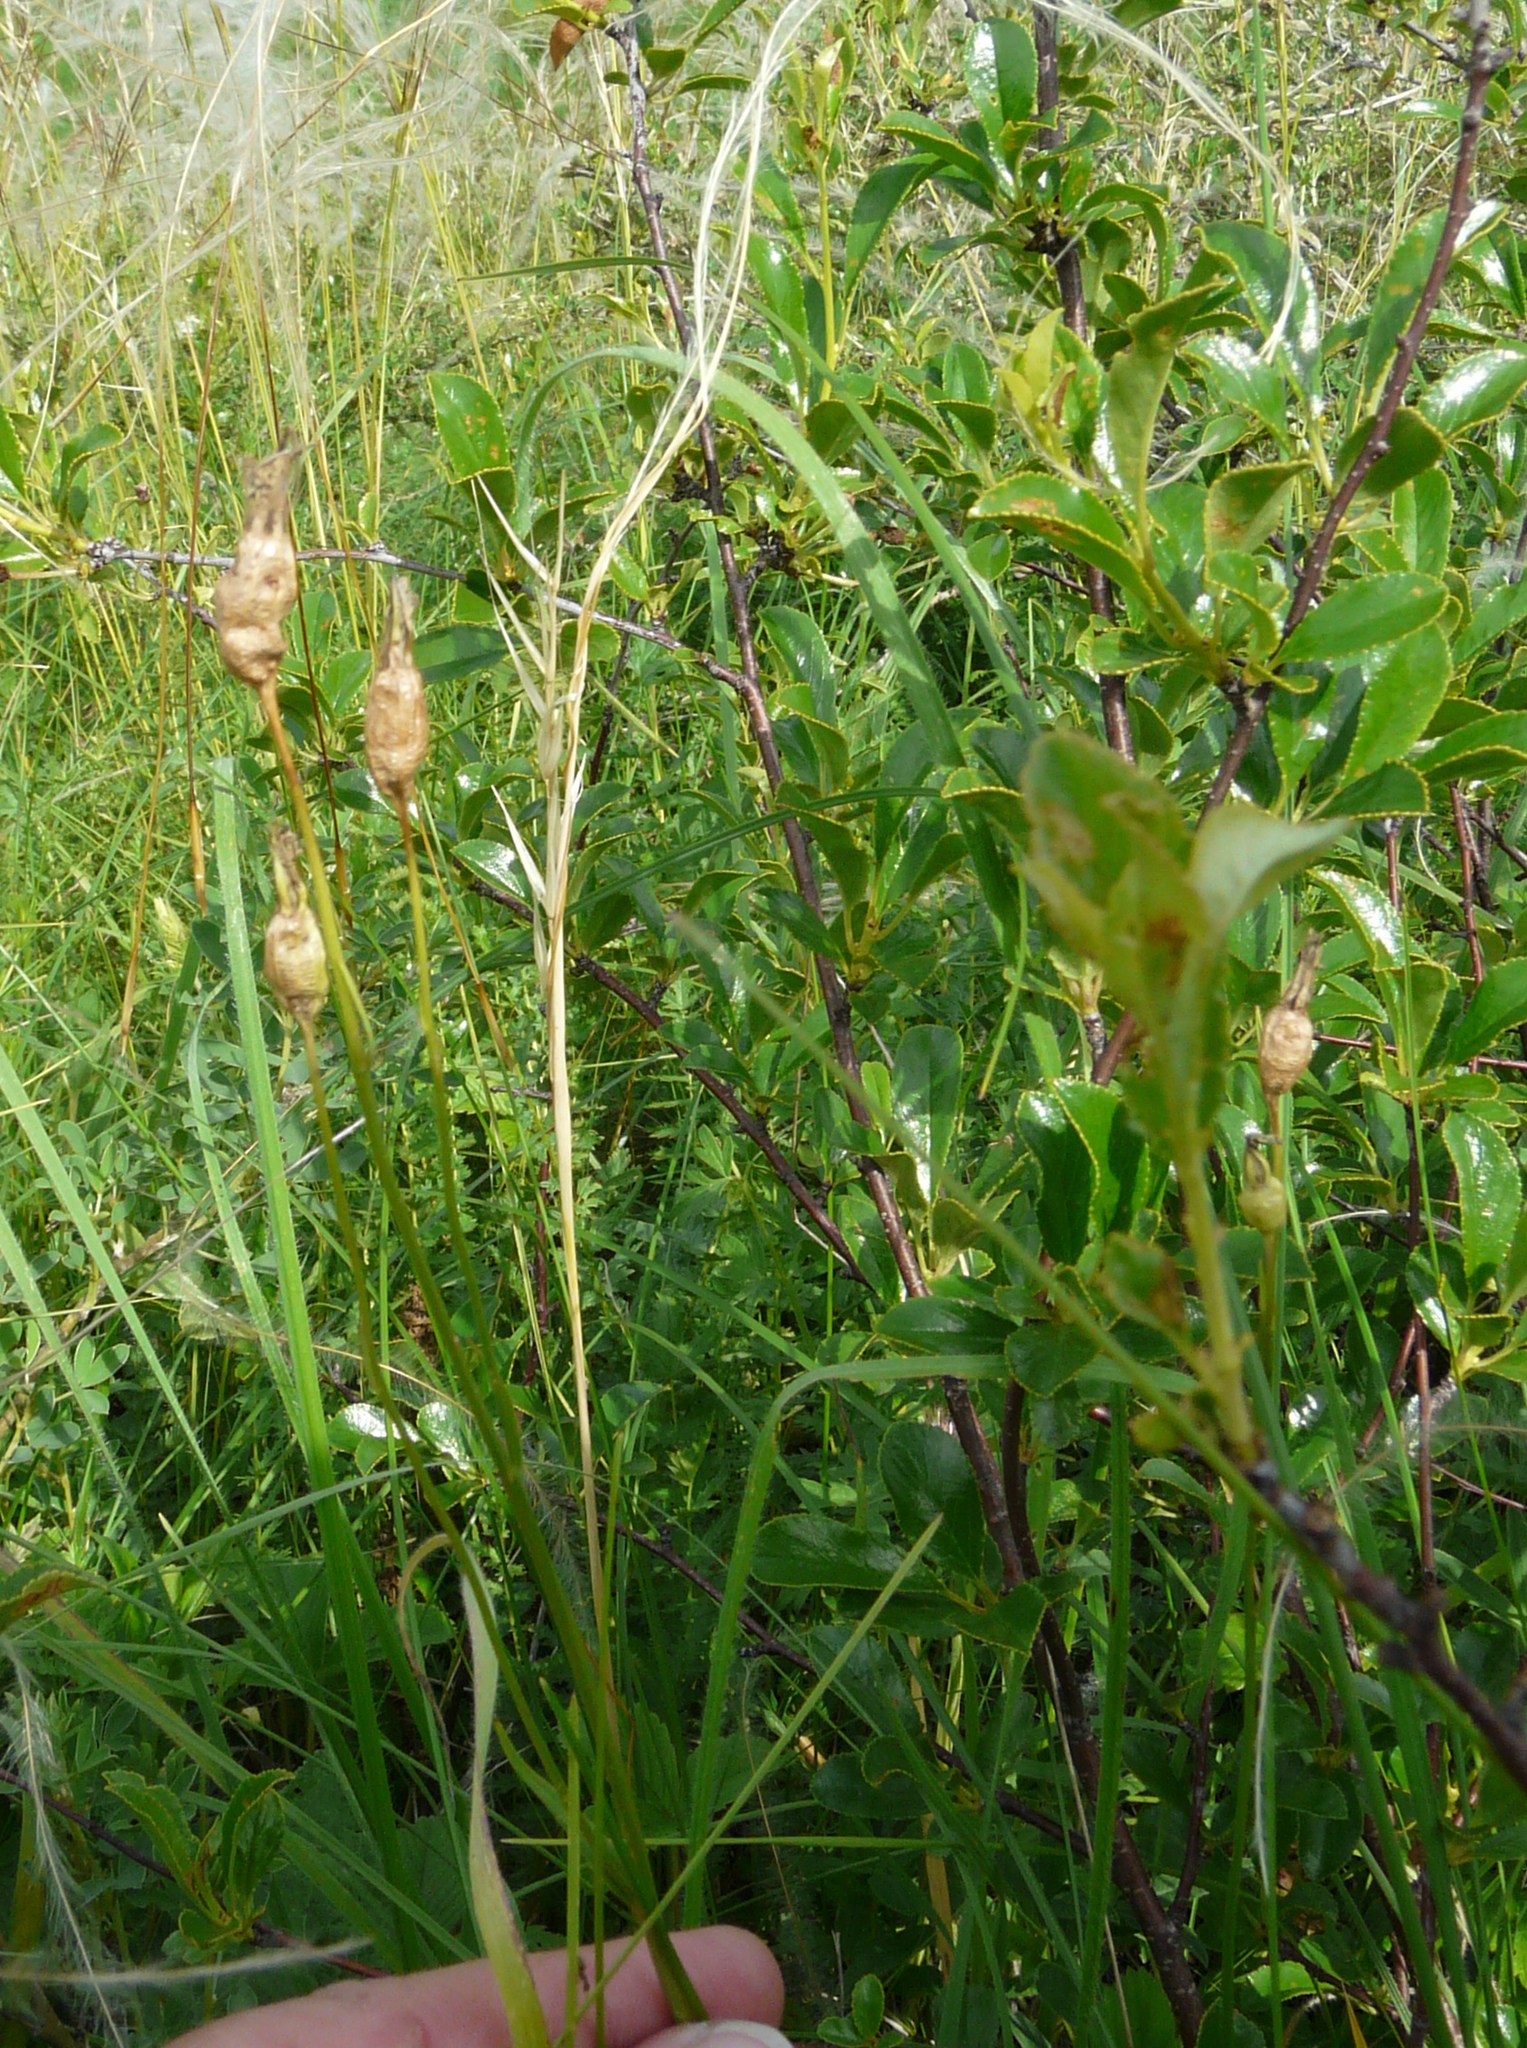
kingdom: Plantae
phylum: Tracheophyta
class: Magnoliopsida
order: Asterales
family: Campanulaceae
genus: Campanula
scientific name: Campanula stevenii
